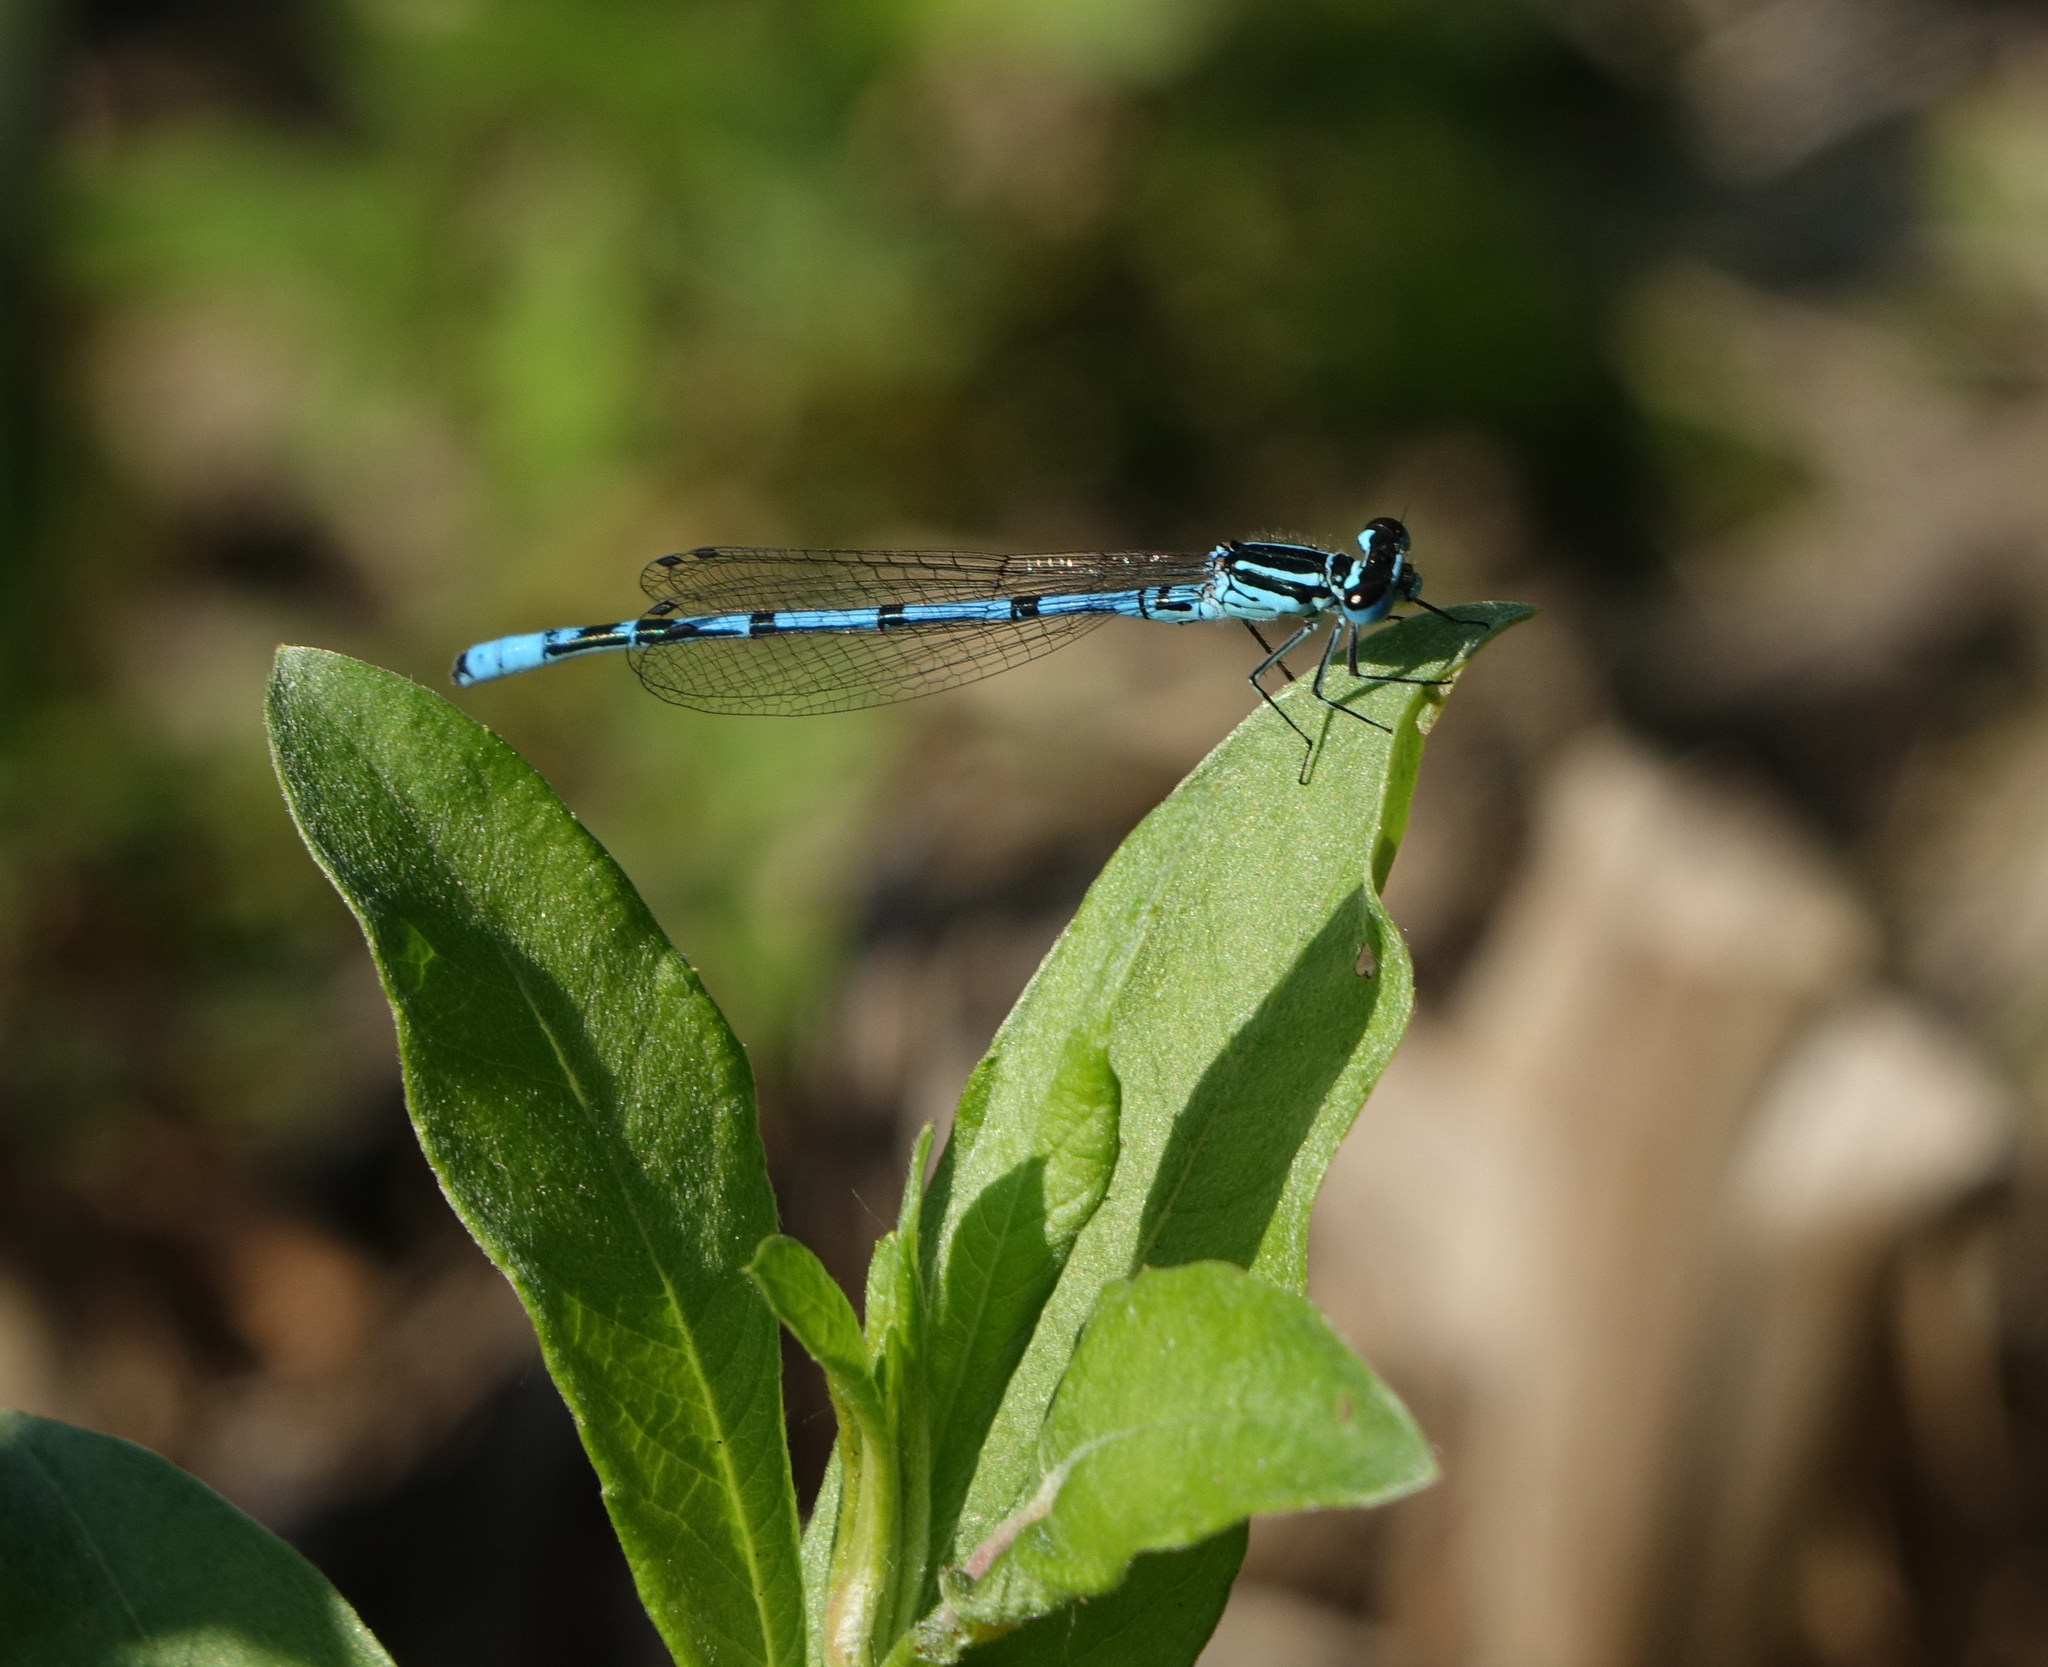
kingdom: Animalia
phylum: Arthropoda
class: Insecta
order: Odonata
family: Coenagrionidae
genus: Coenagrion
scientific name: Coenagrion puella
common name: Azure damselfly
